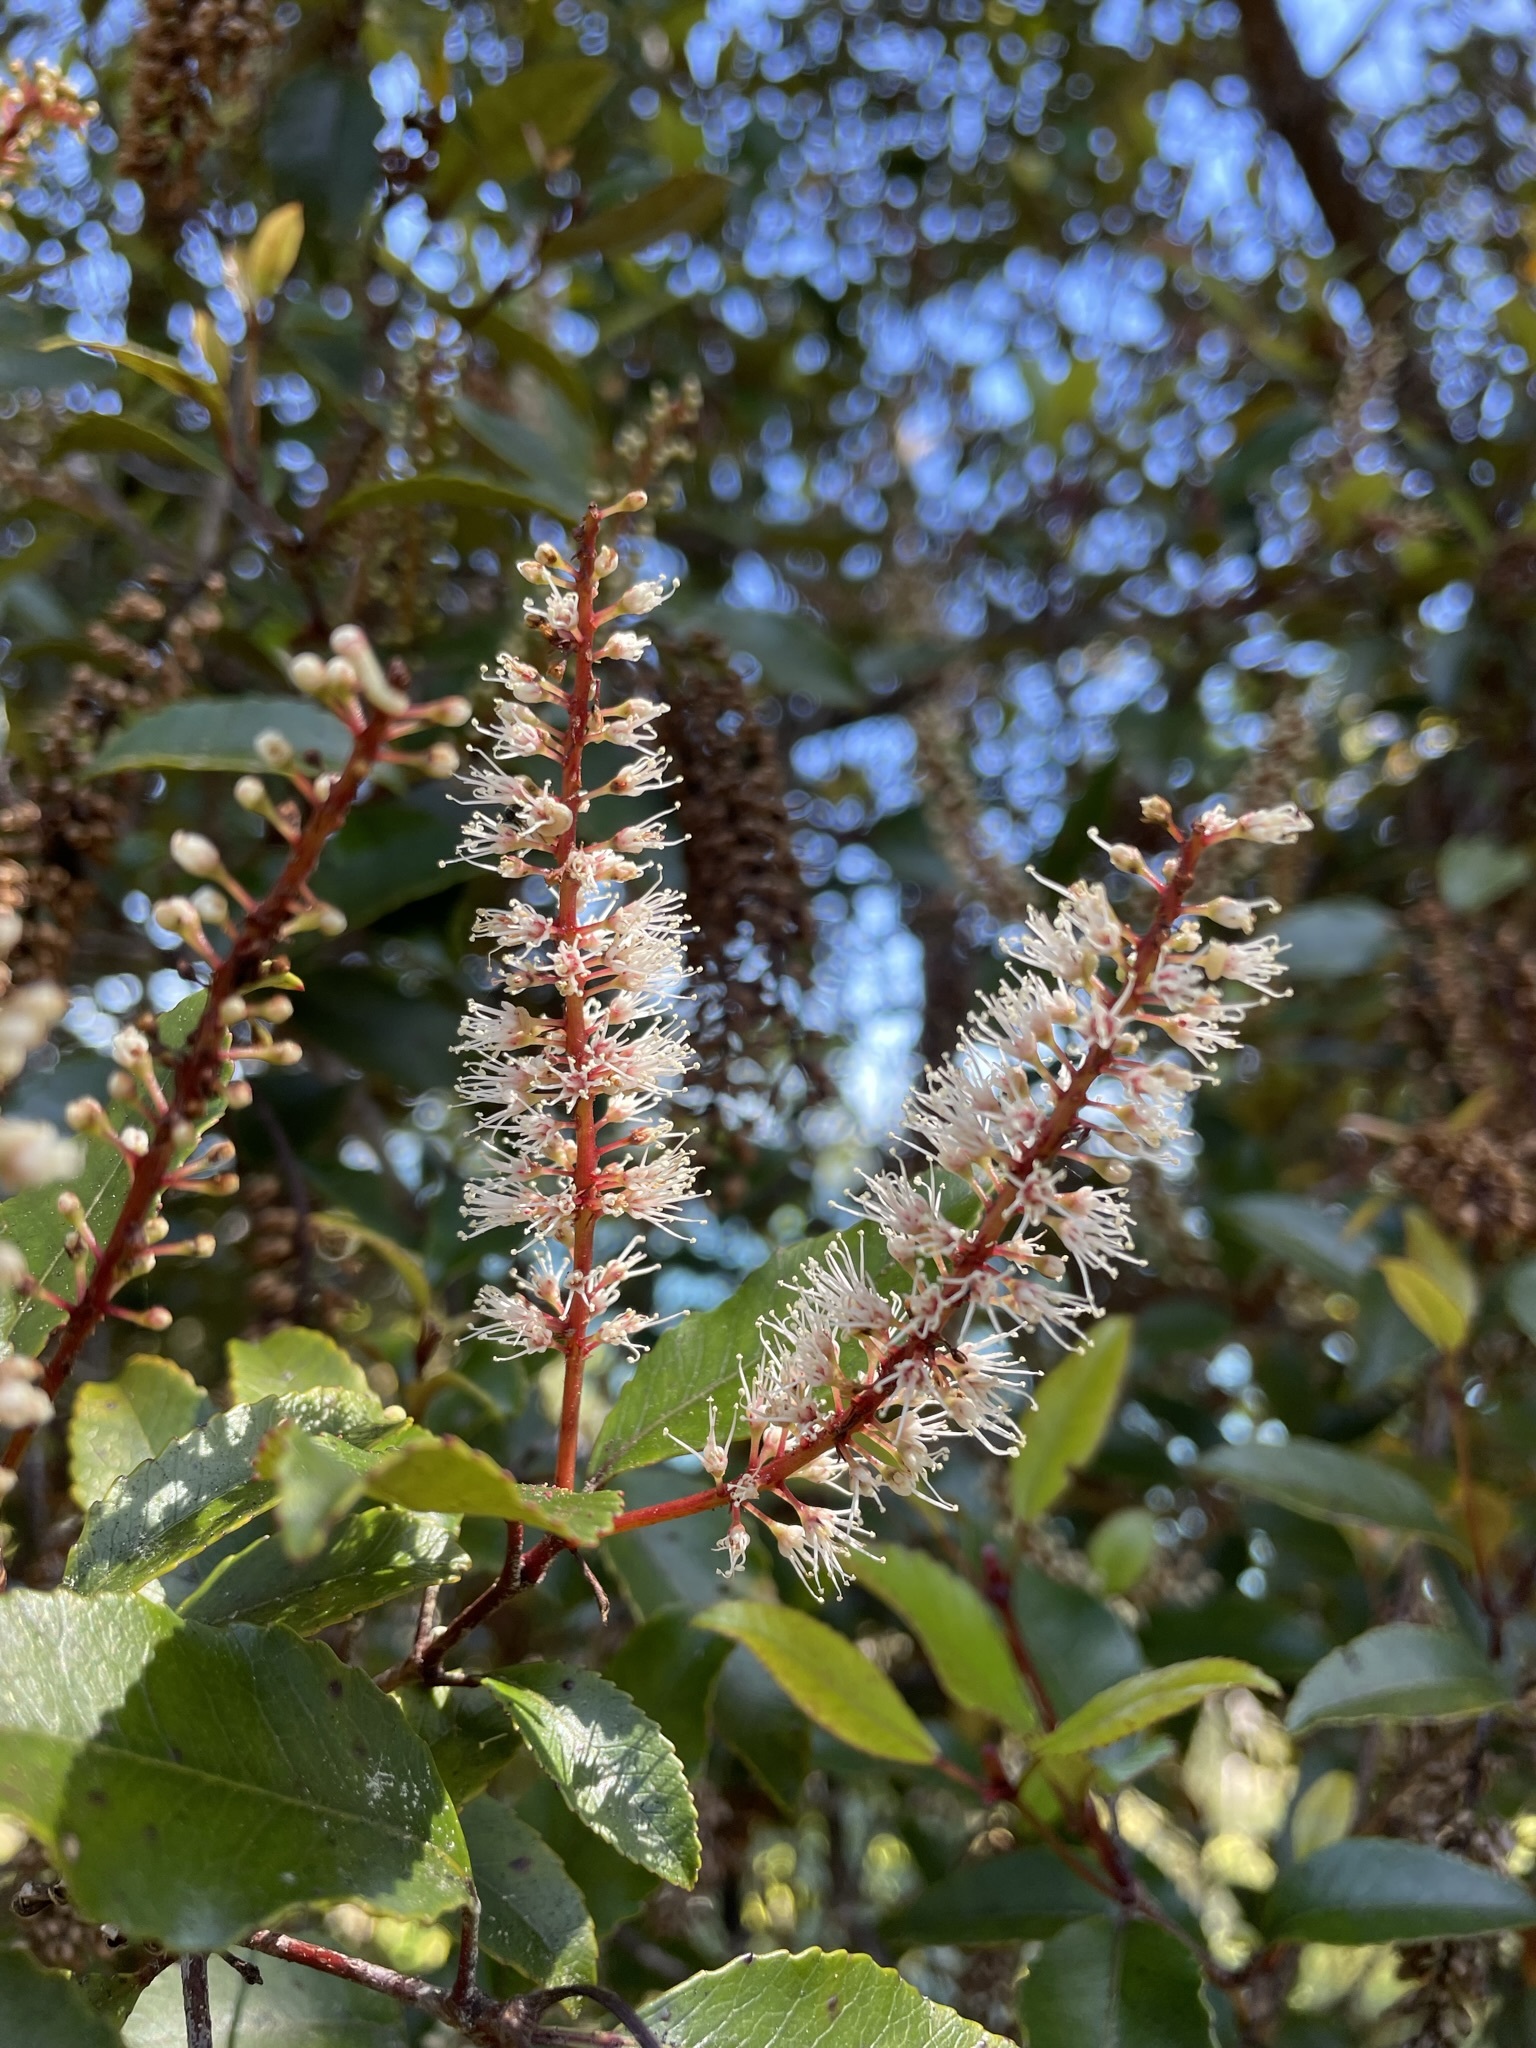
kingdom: Plantae
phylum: Tracheophyta
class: Magnoliopsida
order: Oxalidales
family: Cunoniaceae
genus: Pterophylla
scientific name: Pterophylla racemosa
